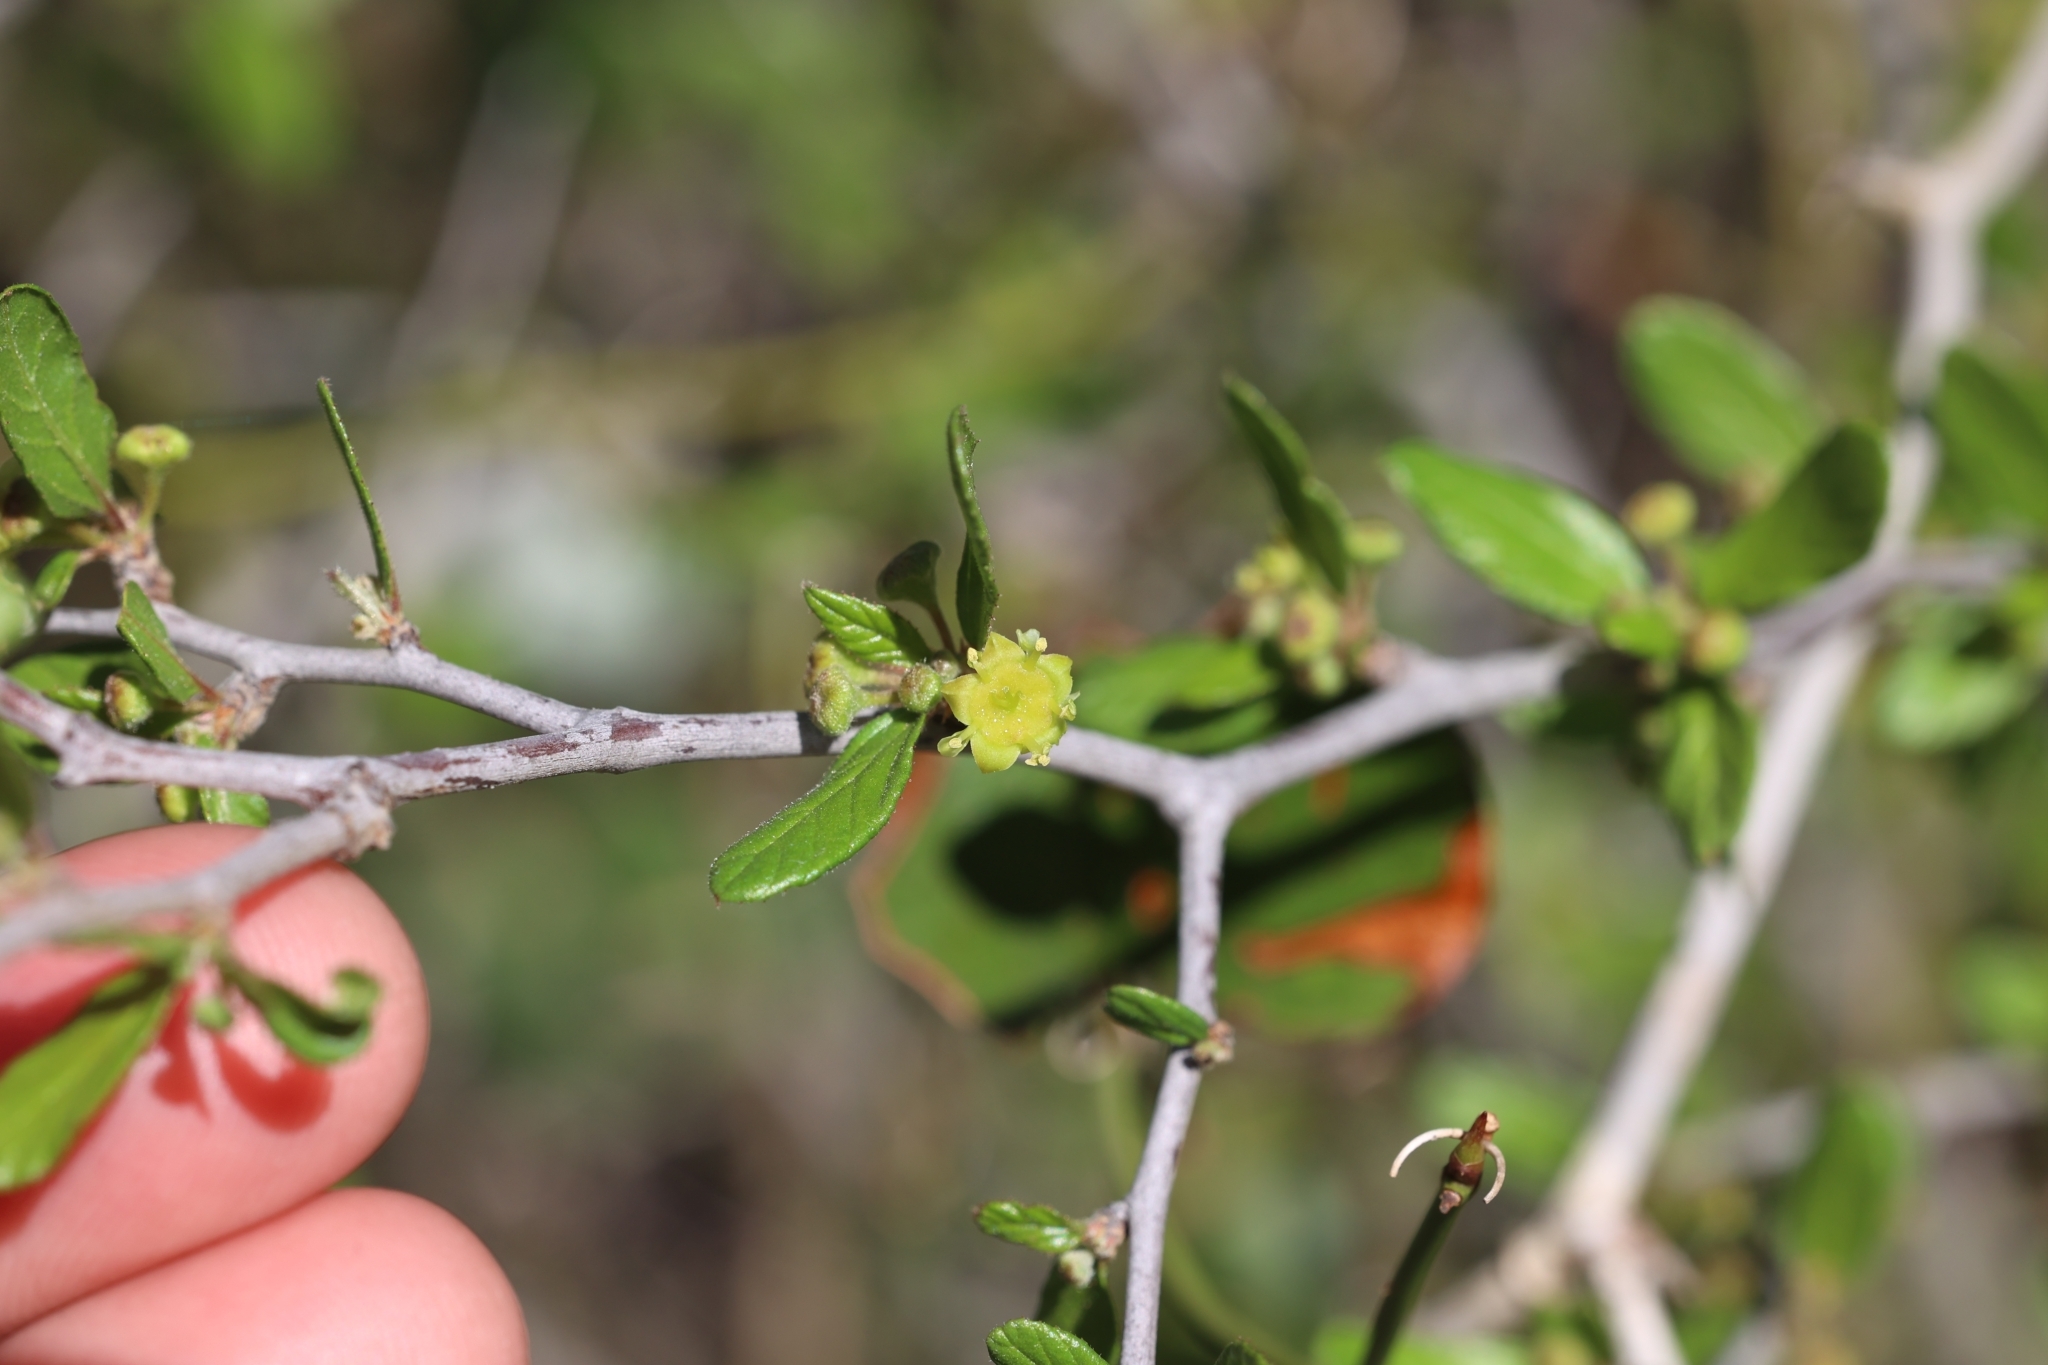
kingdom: Plantae
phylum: Tracheophyta
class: Magnoliopsida
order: Rosales
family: Rhamnaceae
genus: Colubrina
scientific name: Colubrina texensis
